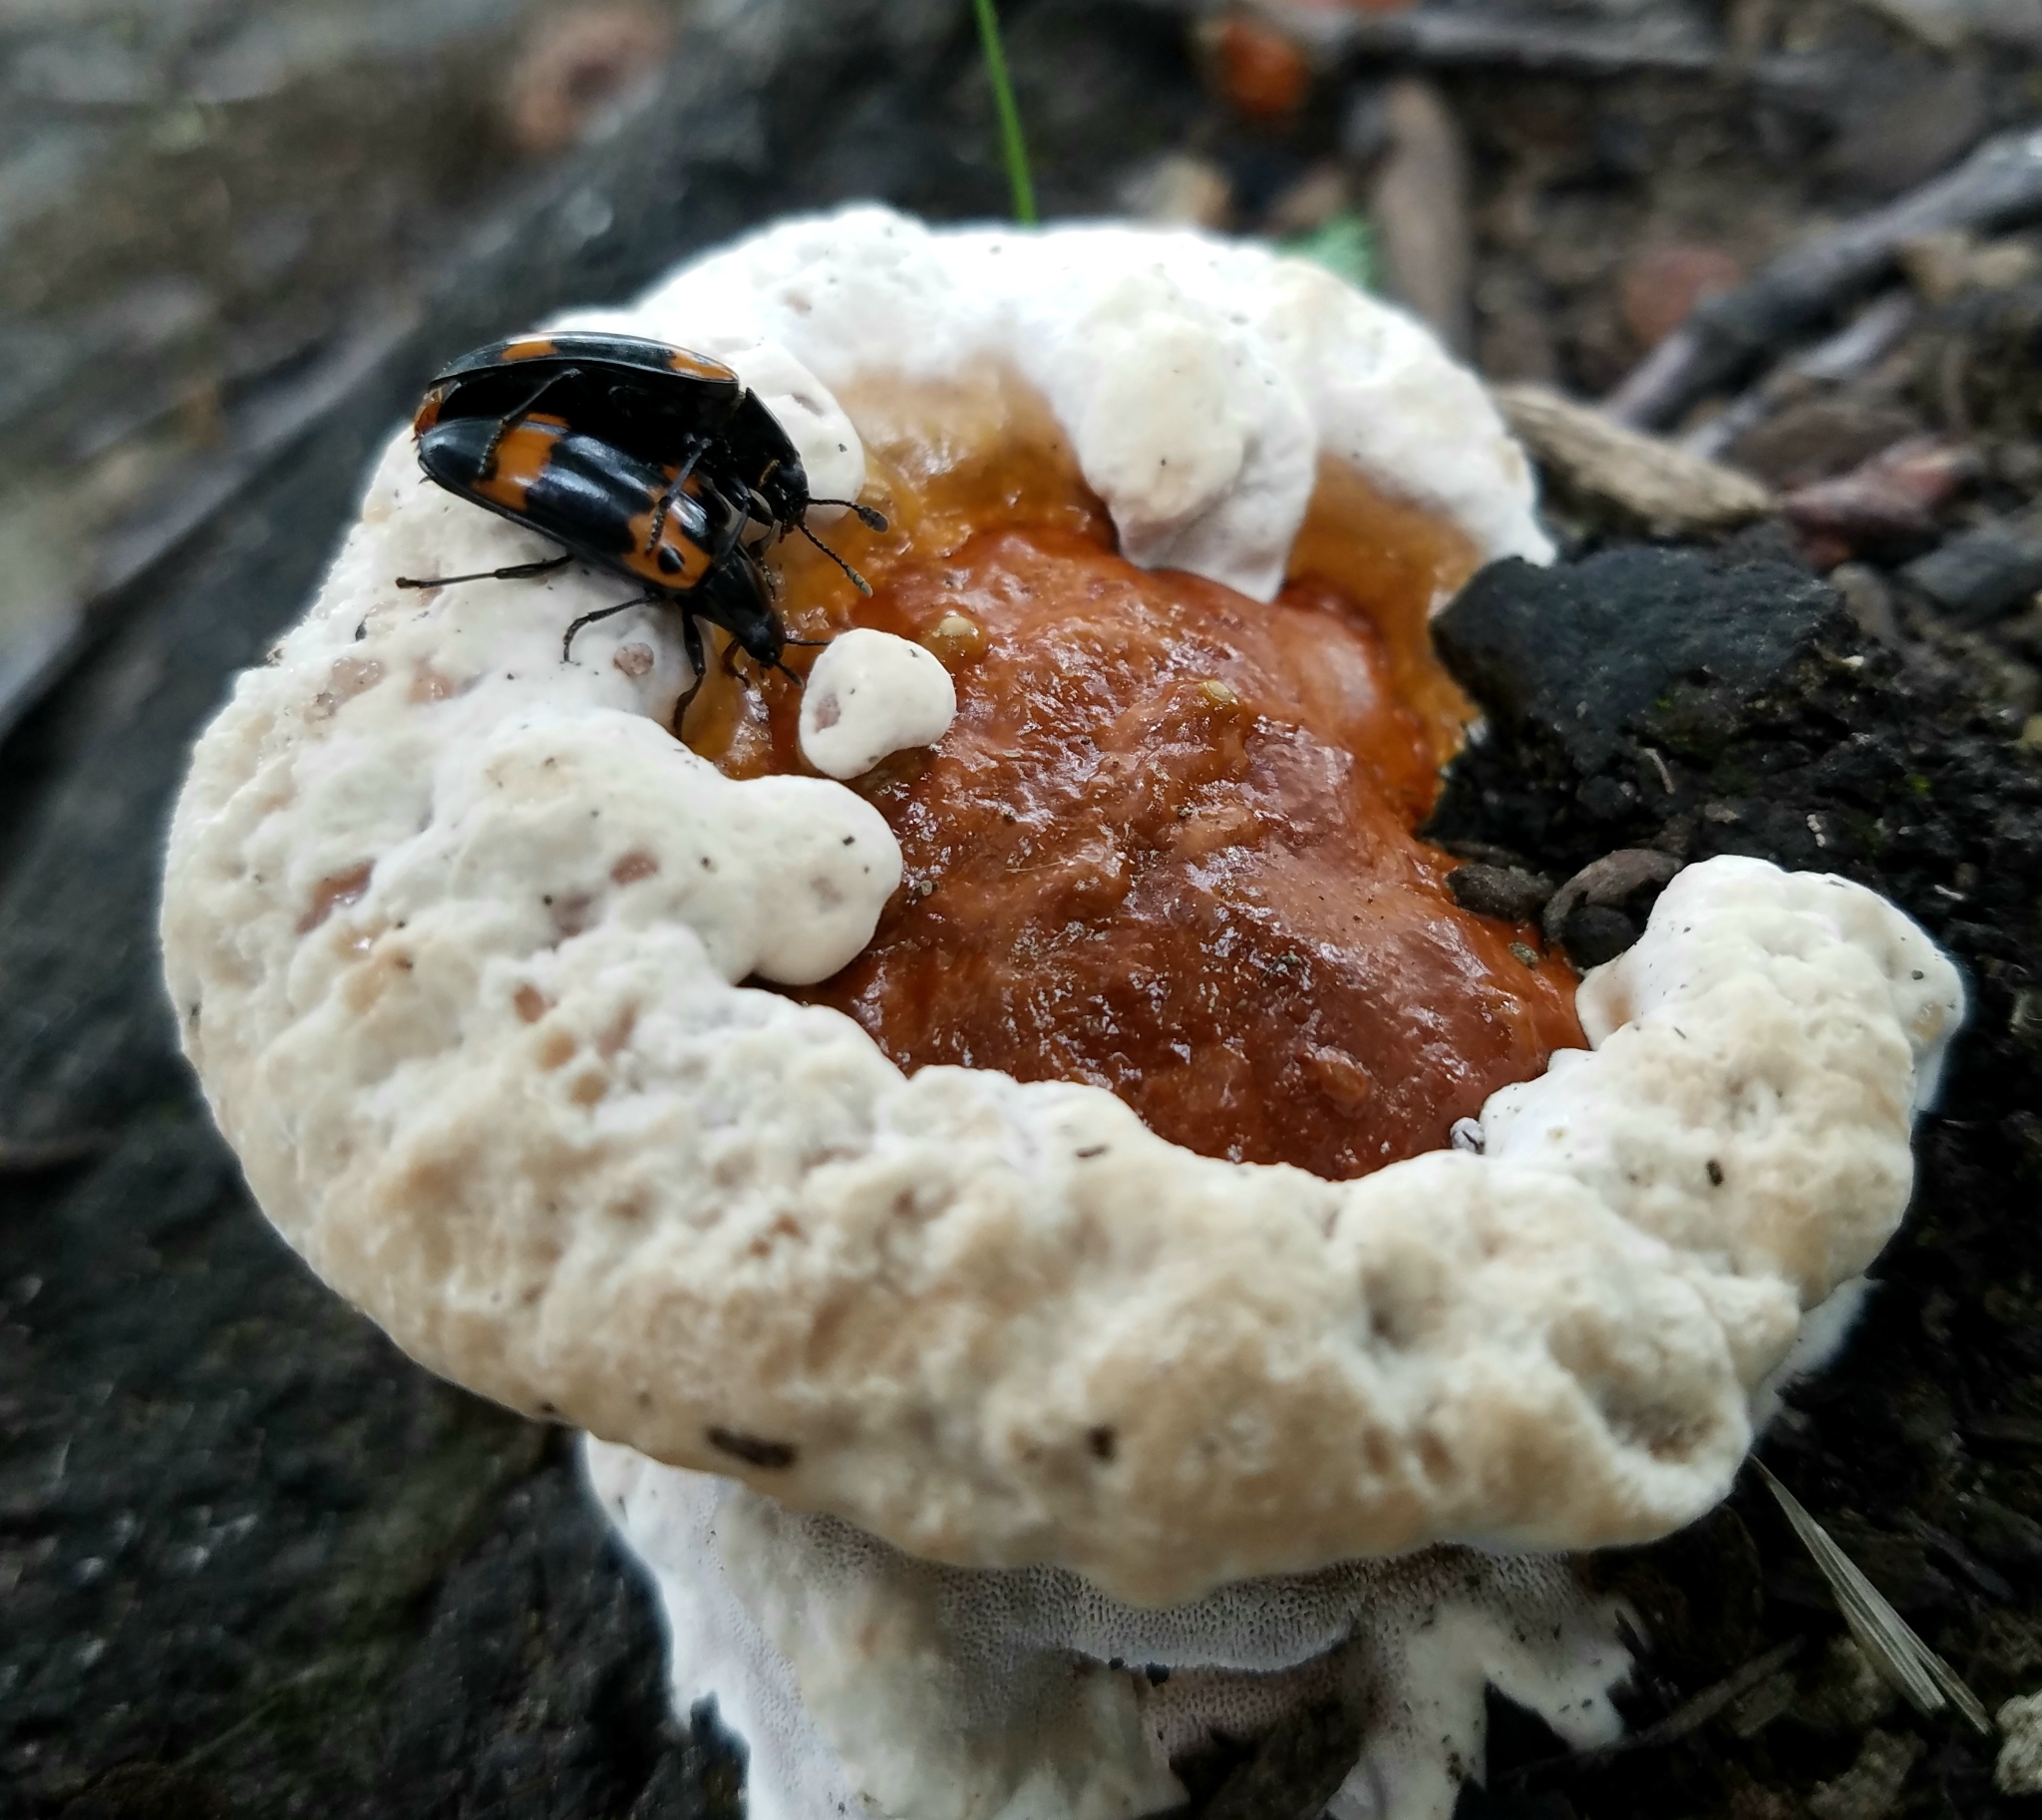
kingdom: Animalia
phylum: Arthropoda
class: Insecta
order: Coleoptera
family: Erotylidae
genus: Megalodacne
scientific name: Megalodacne fasciata
